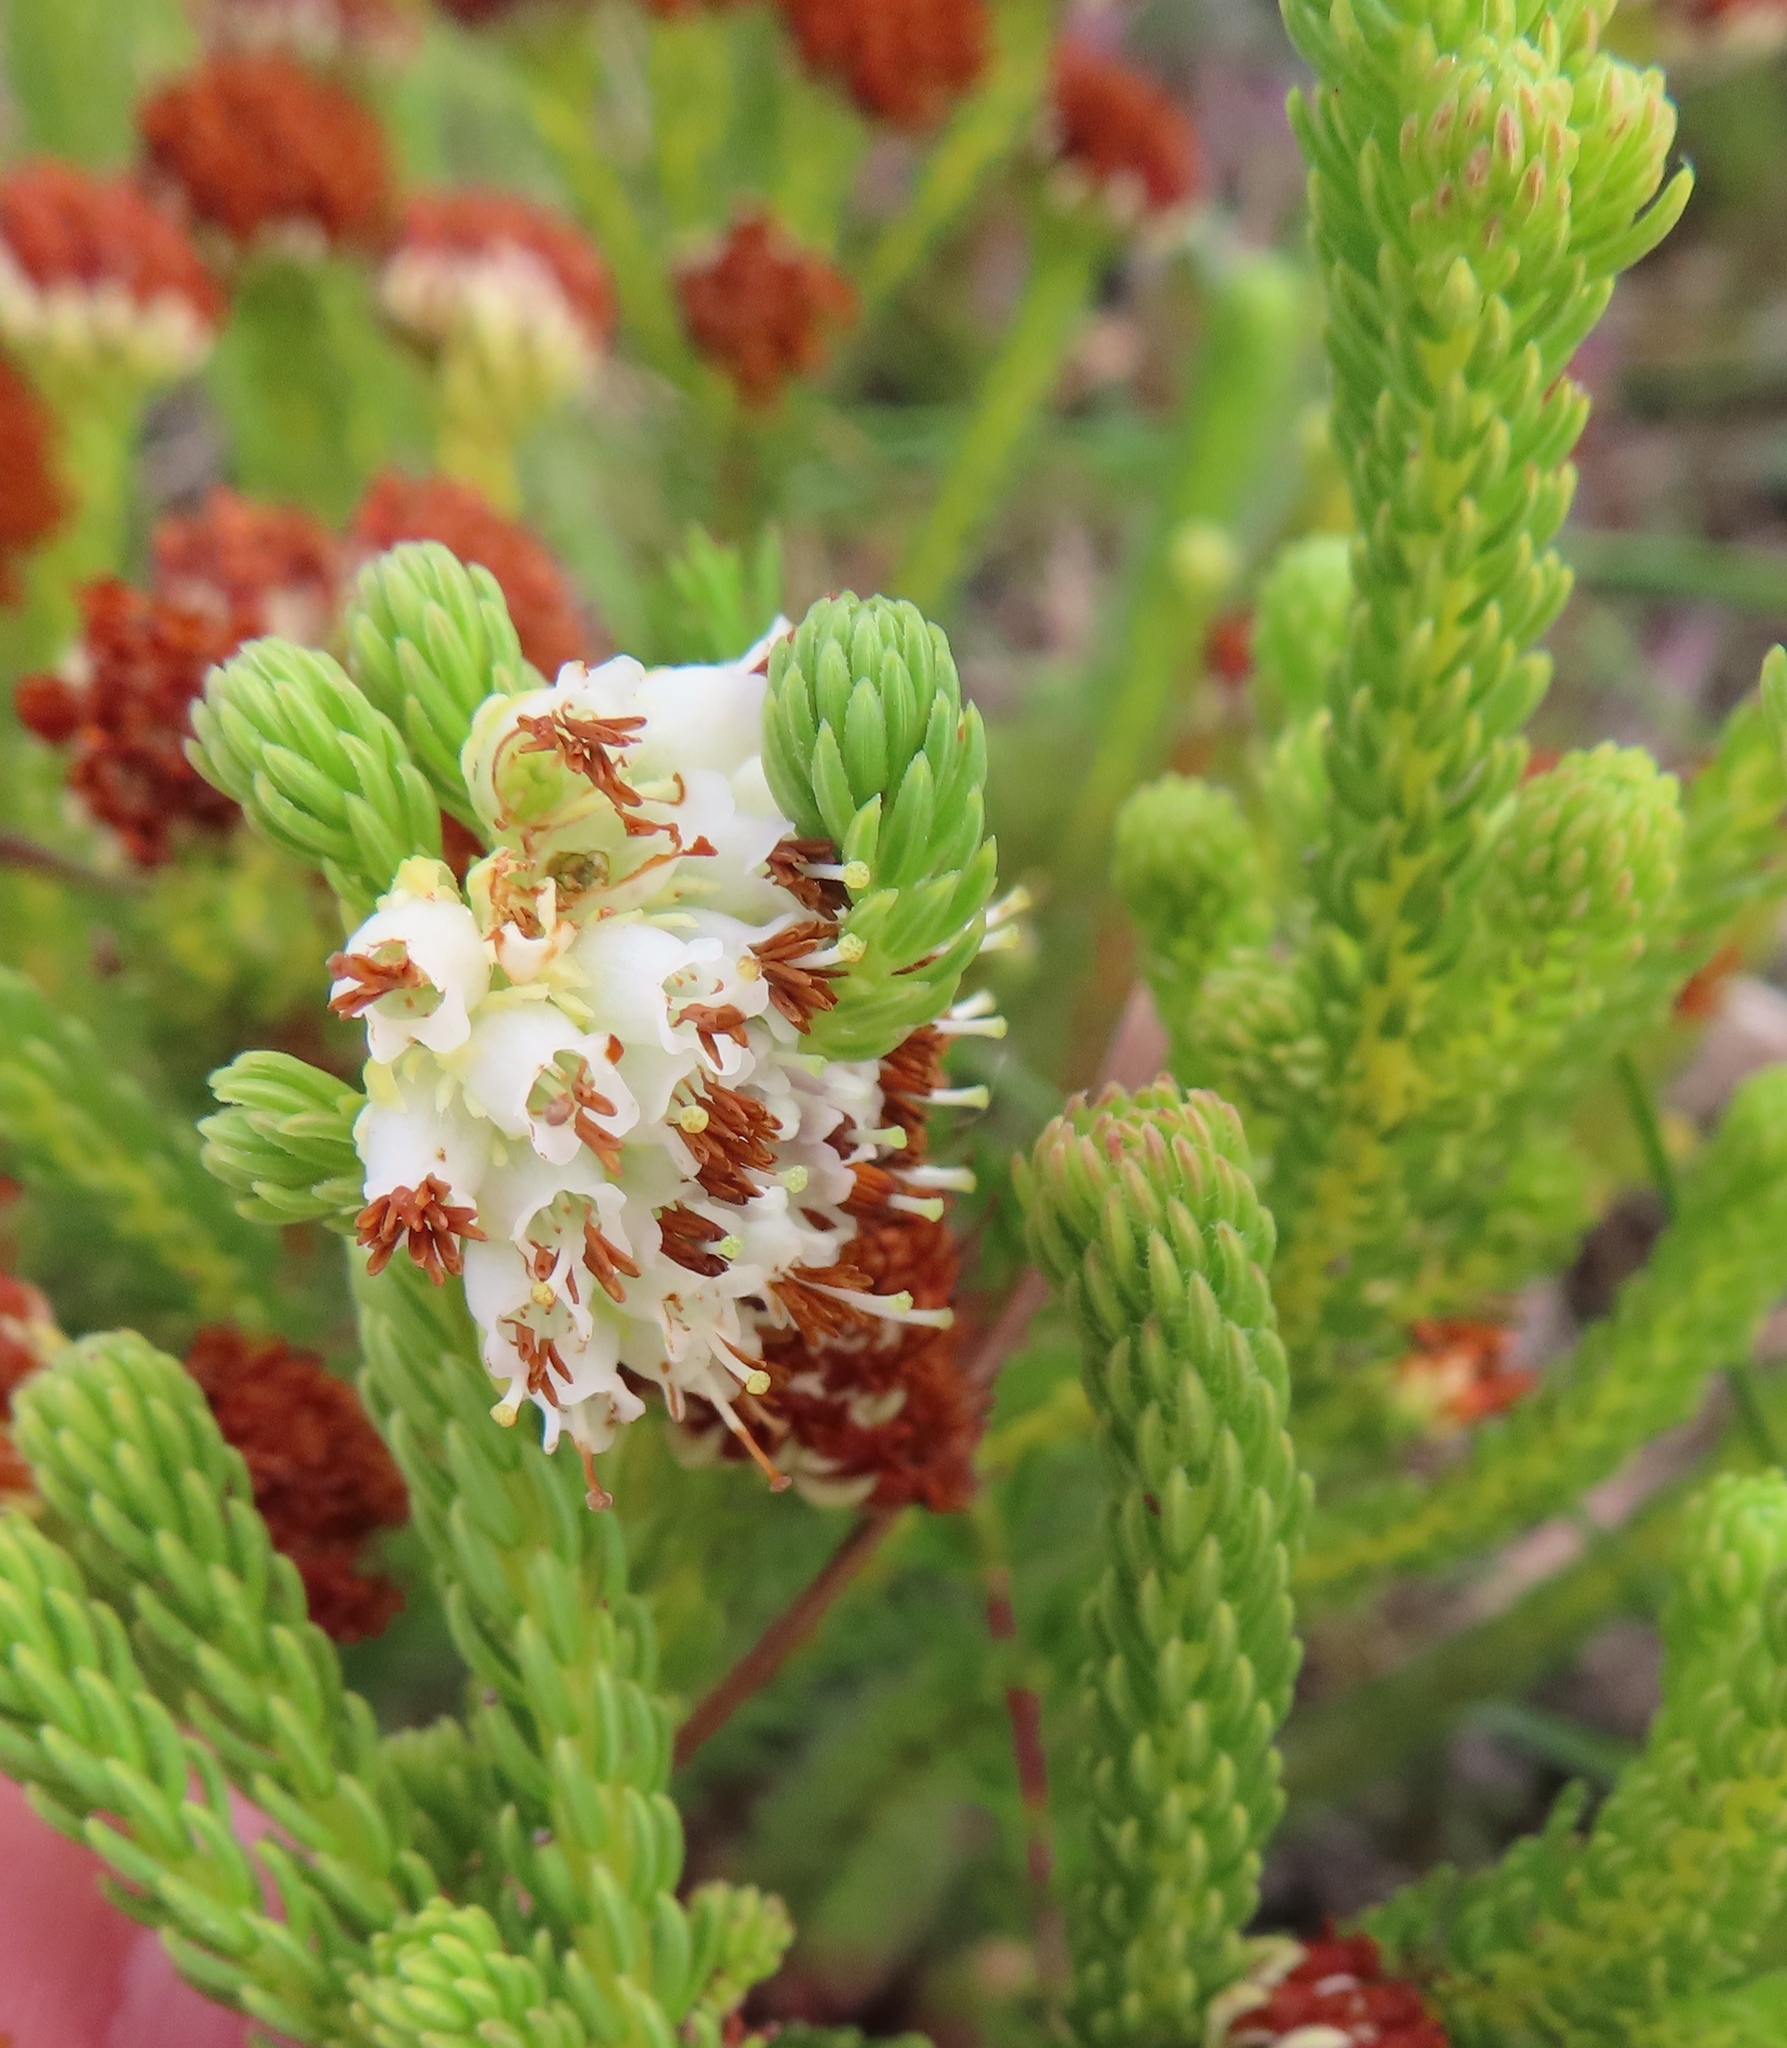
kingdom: Plantae
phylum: Tracheophyta
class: Magnoliopsida
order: Ericales
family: Ericaceae
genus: Erica
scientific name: Erica bruniifolia
